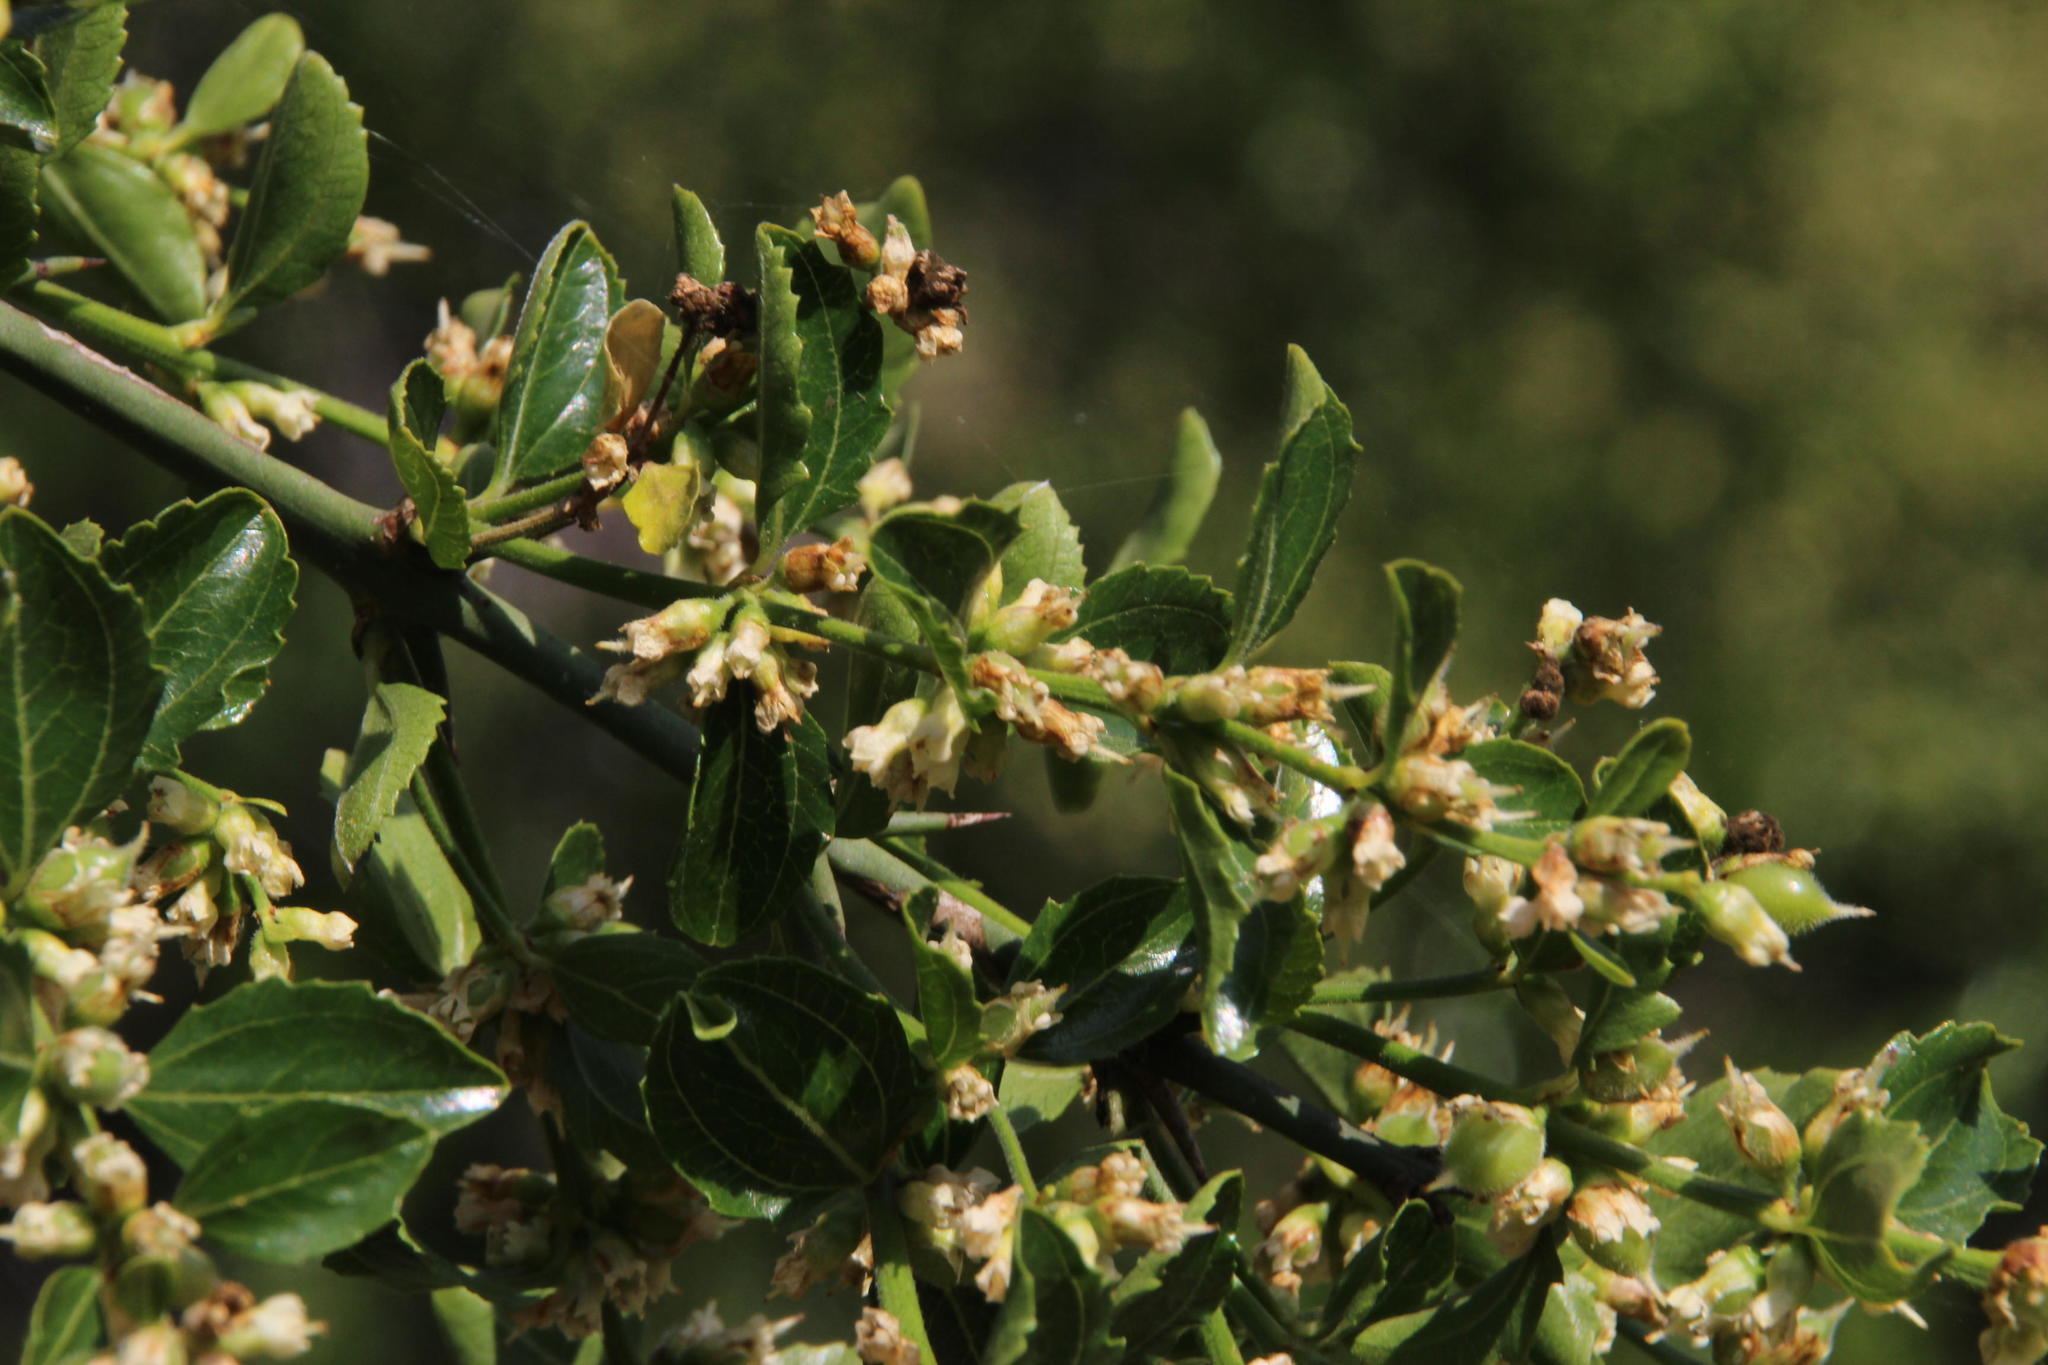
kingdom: Plantae
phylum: Tracheophyta
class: Magnoliopsida
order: Rosales
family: Rhamnaceae
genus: Retanilla
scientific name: Retanilla trinervia
